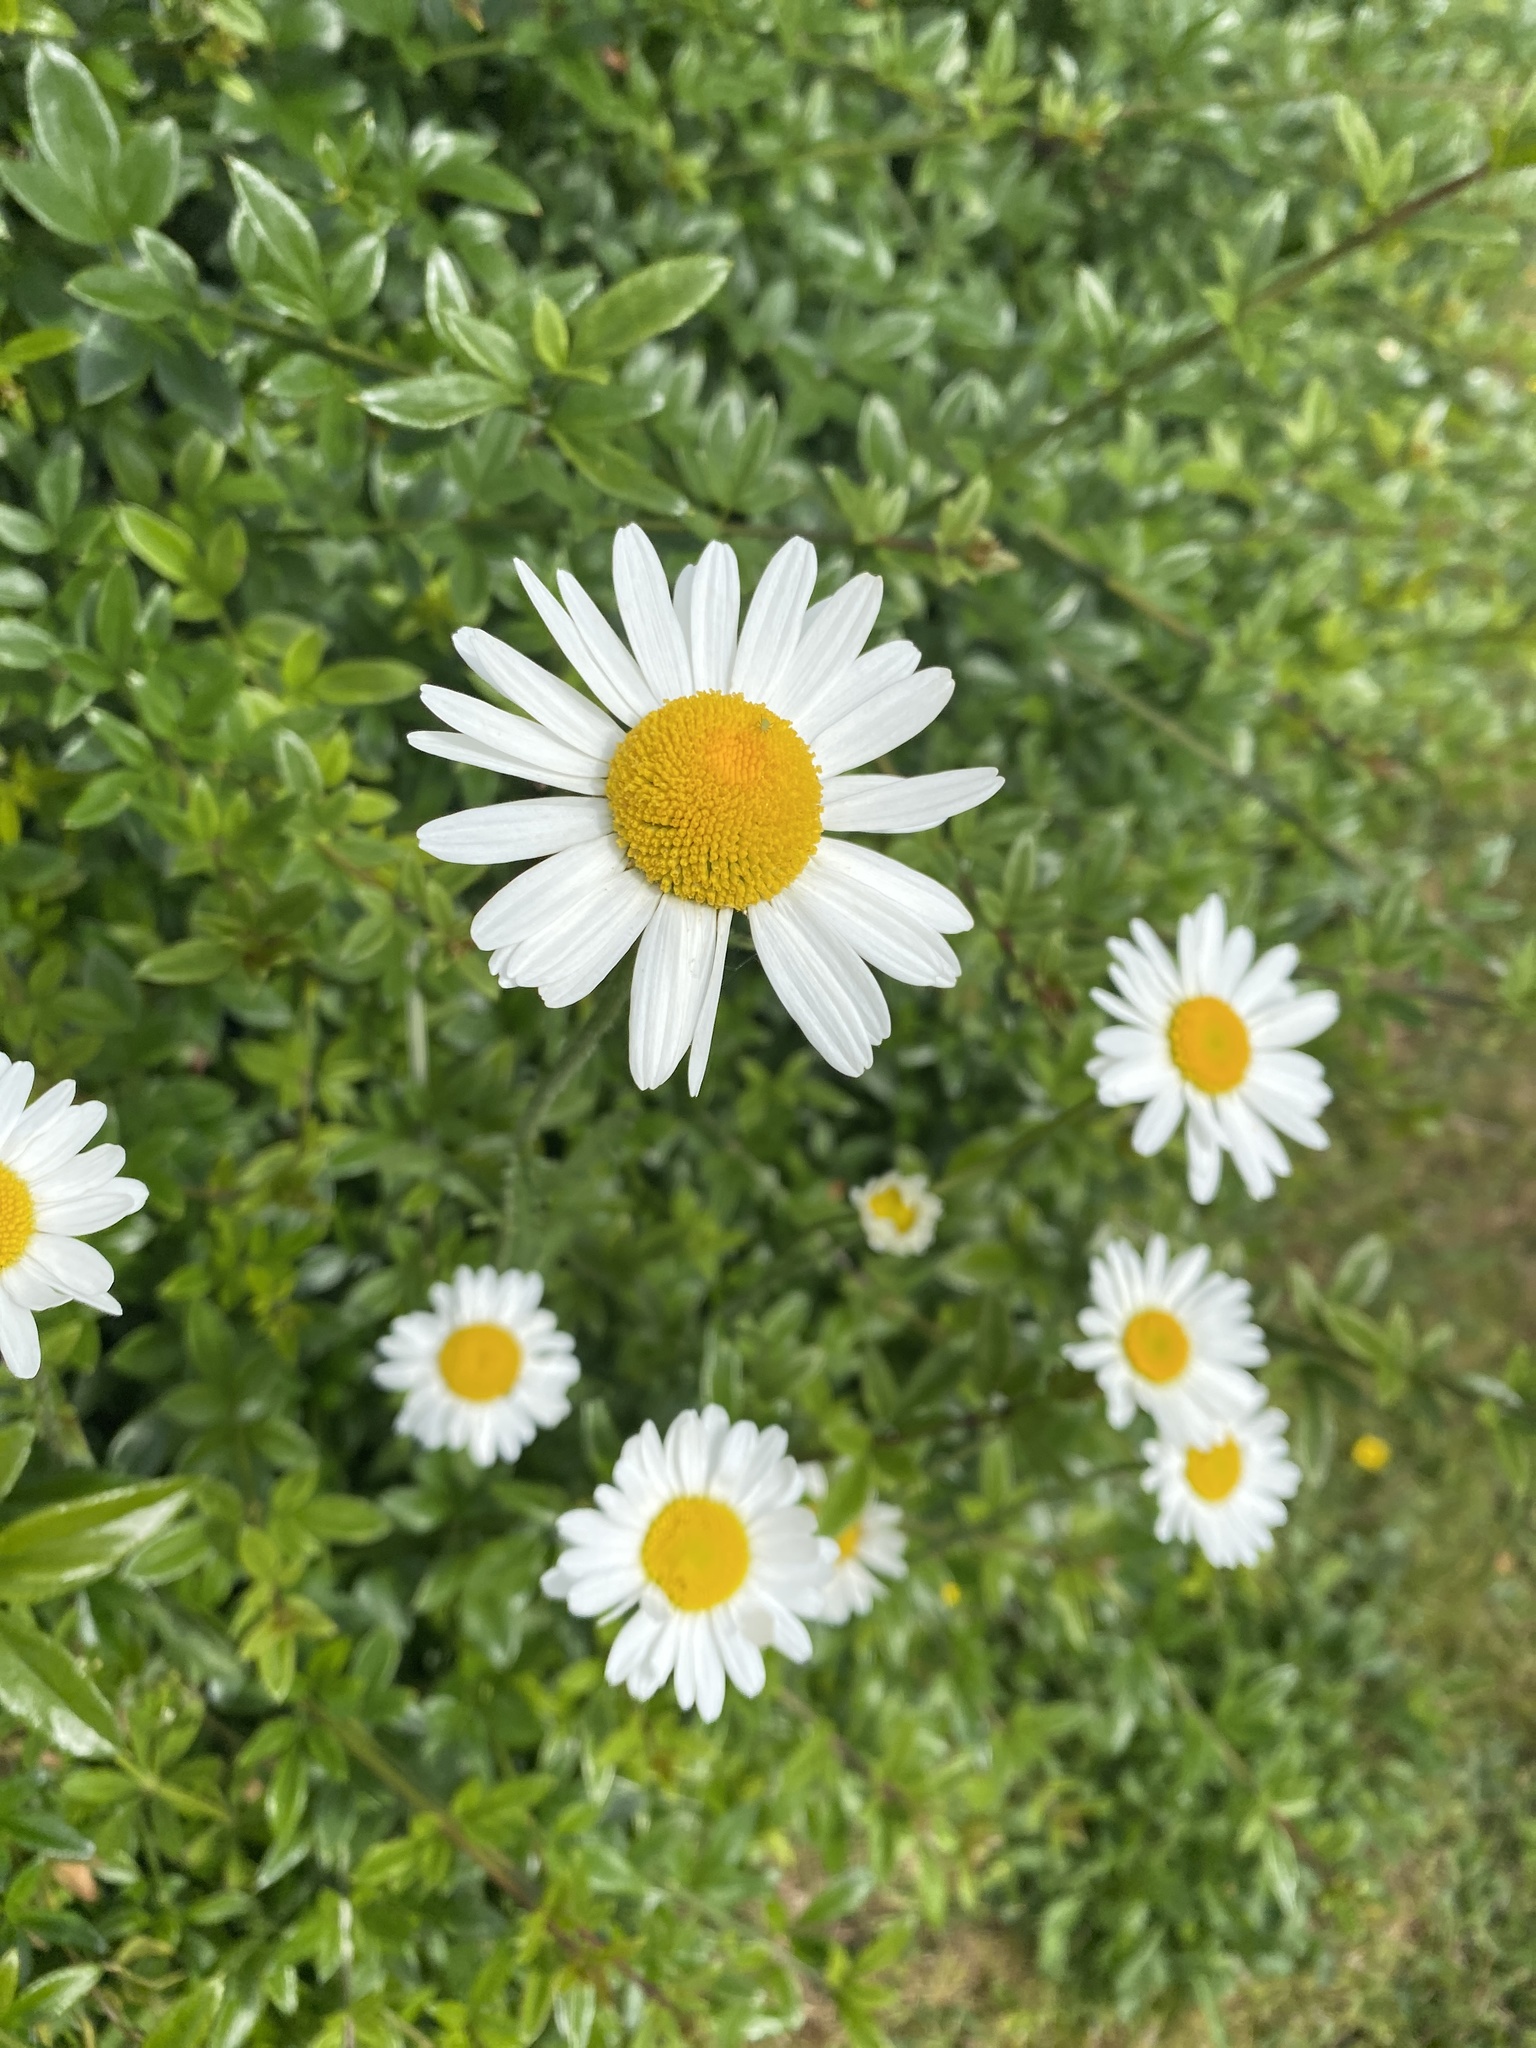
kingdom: Plantae
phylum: Tracheophyta
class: Magnoliopsida
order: Asterales
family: Asteraceae
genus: Leucanthemum
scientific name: Leucanthemum vulgare
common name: Oxeye daisy
